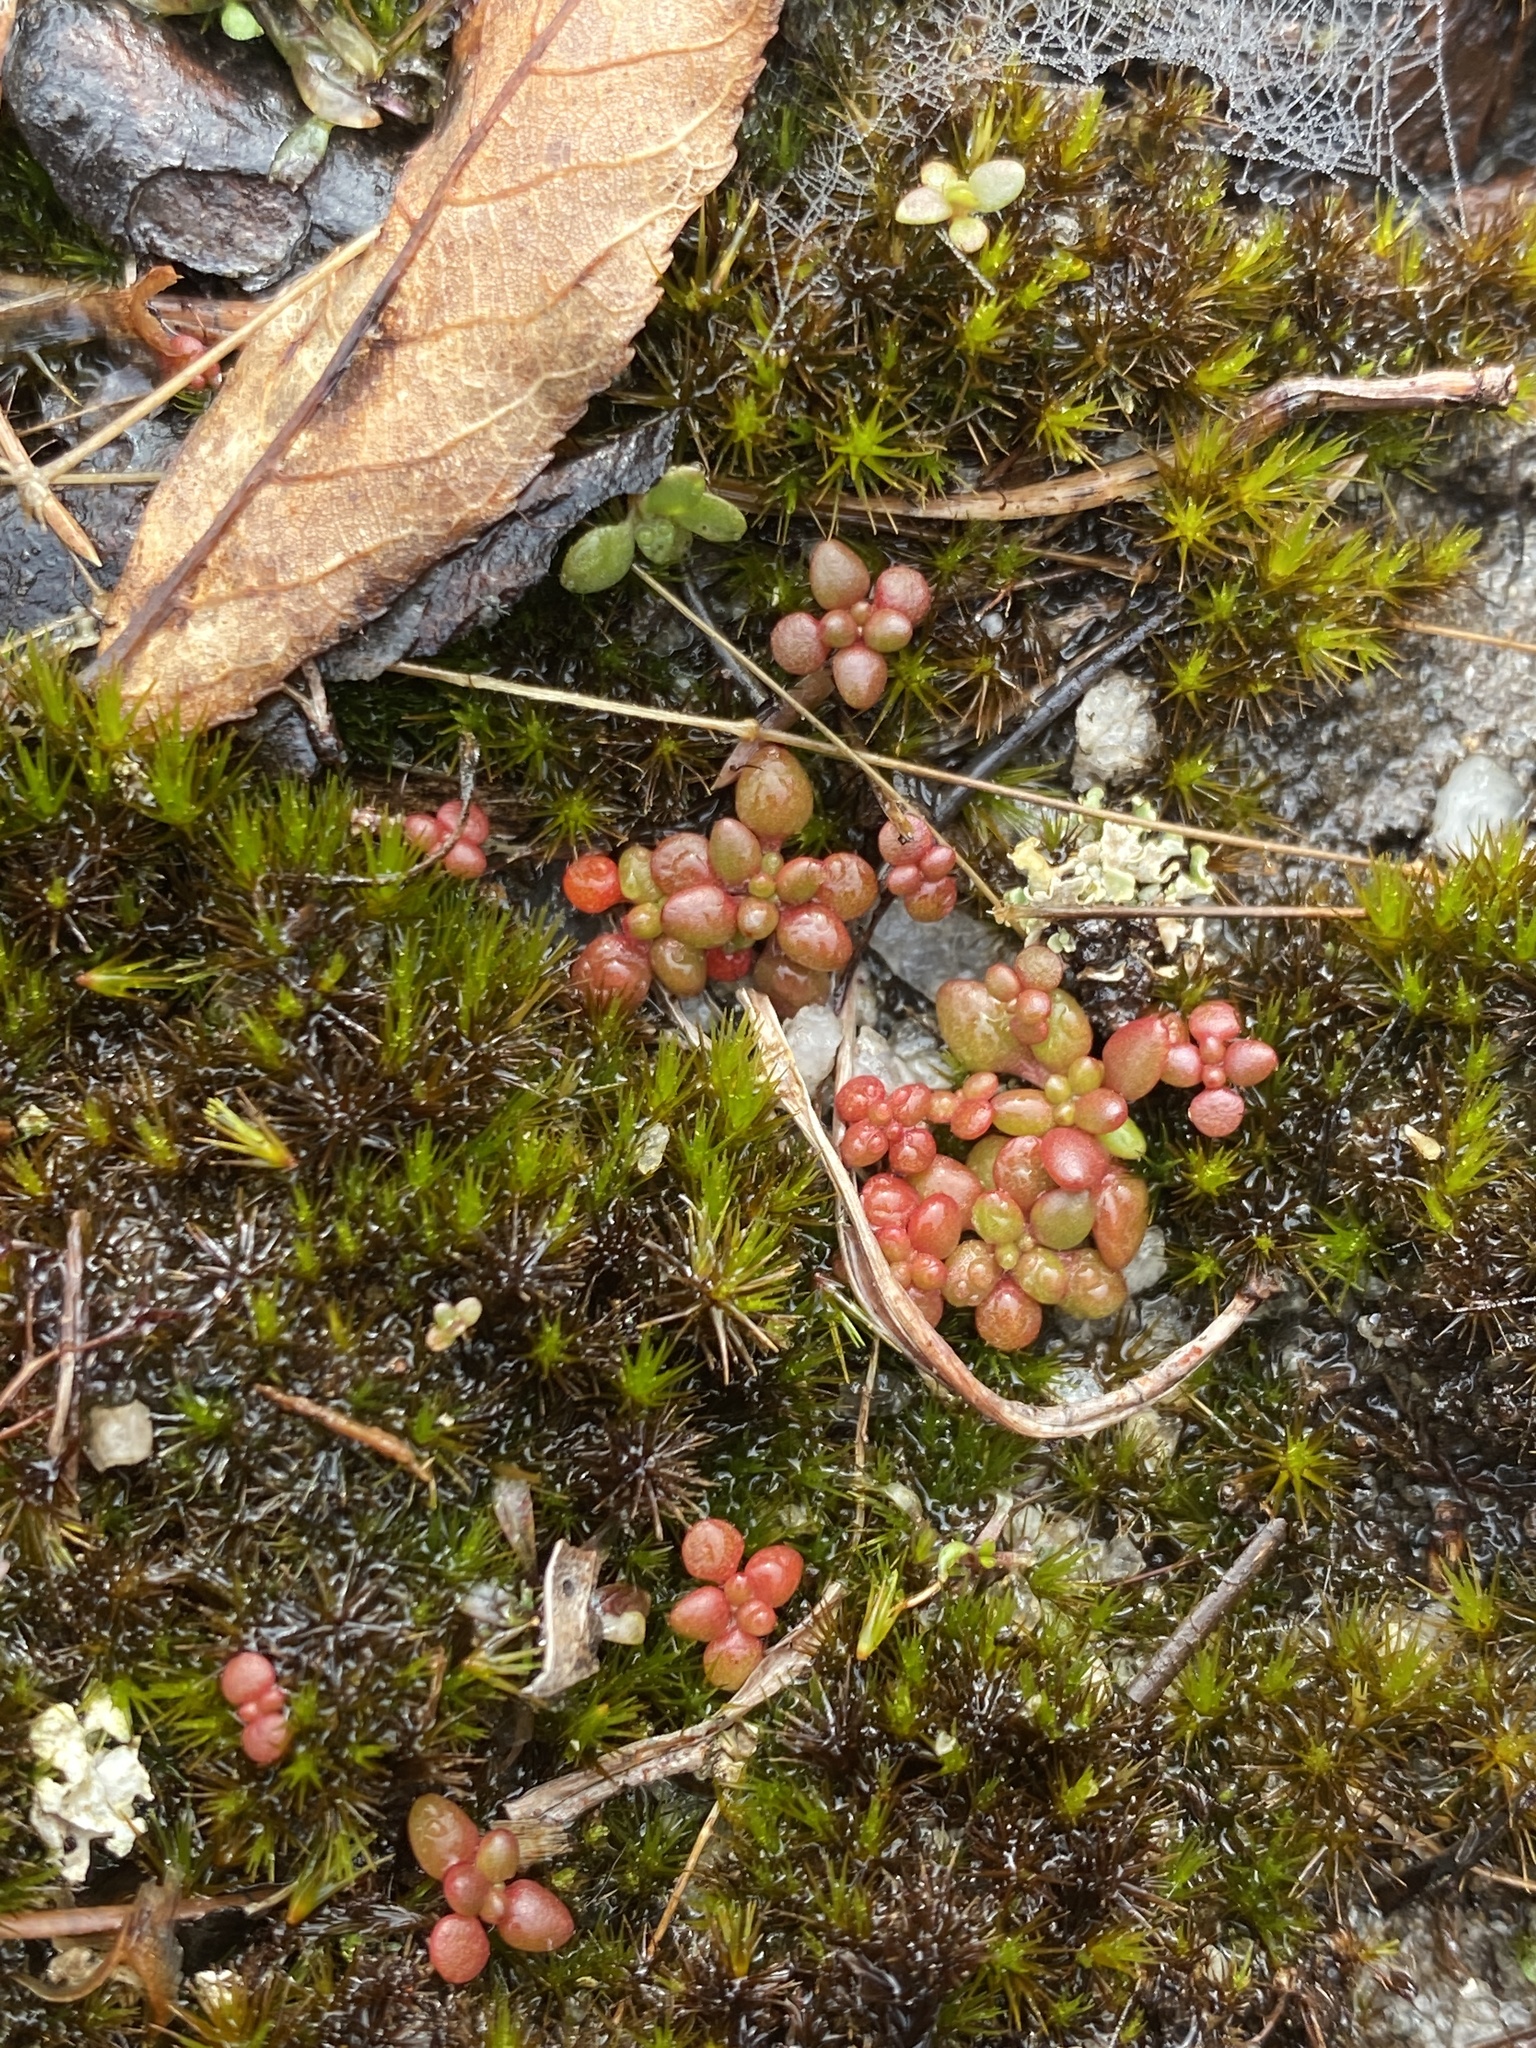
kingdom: Plantae
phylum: Tracheophyta
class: Magnoliopsida
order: Saxifragales
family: Crassulaceae
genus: Sedum
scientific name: Sedum smallii
